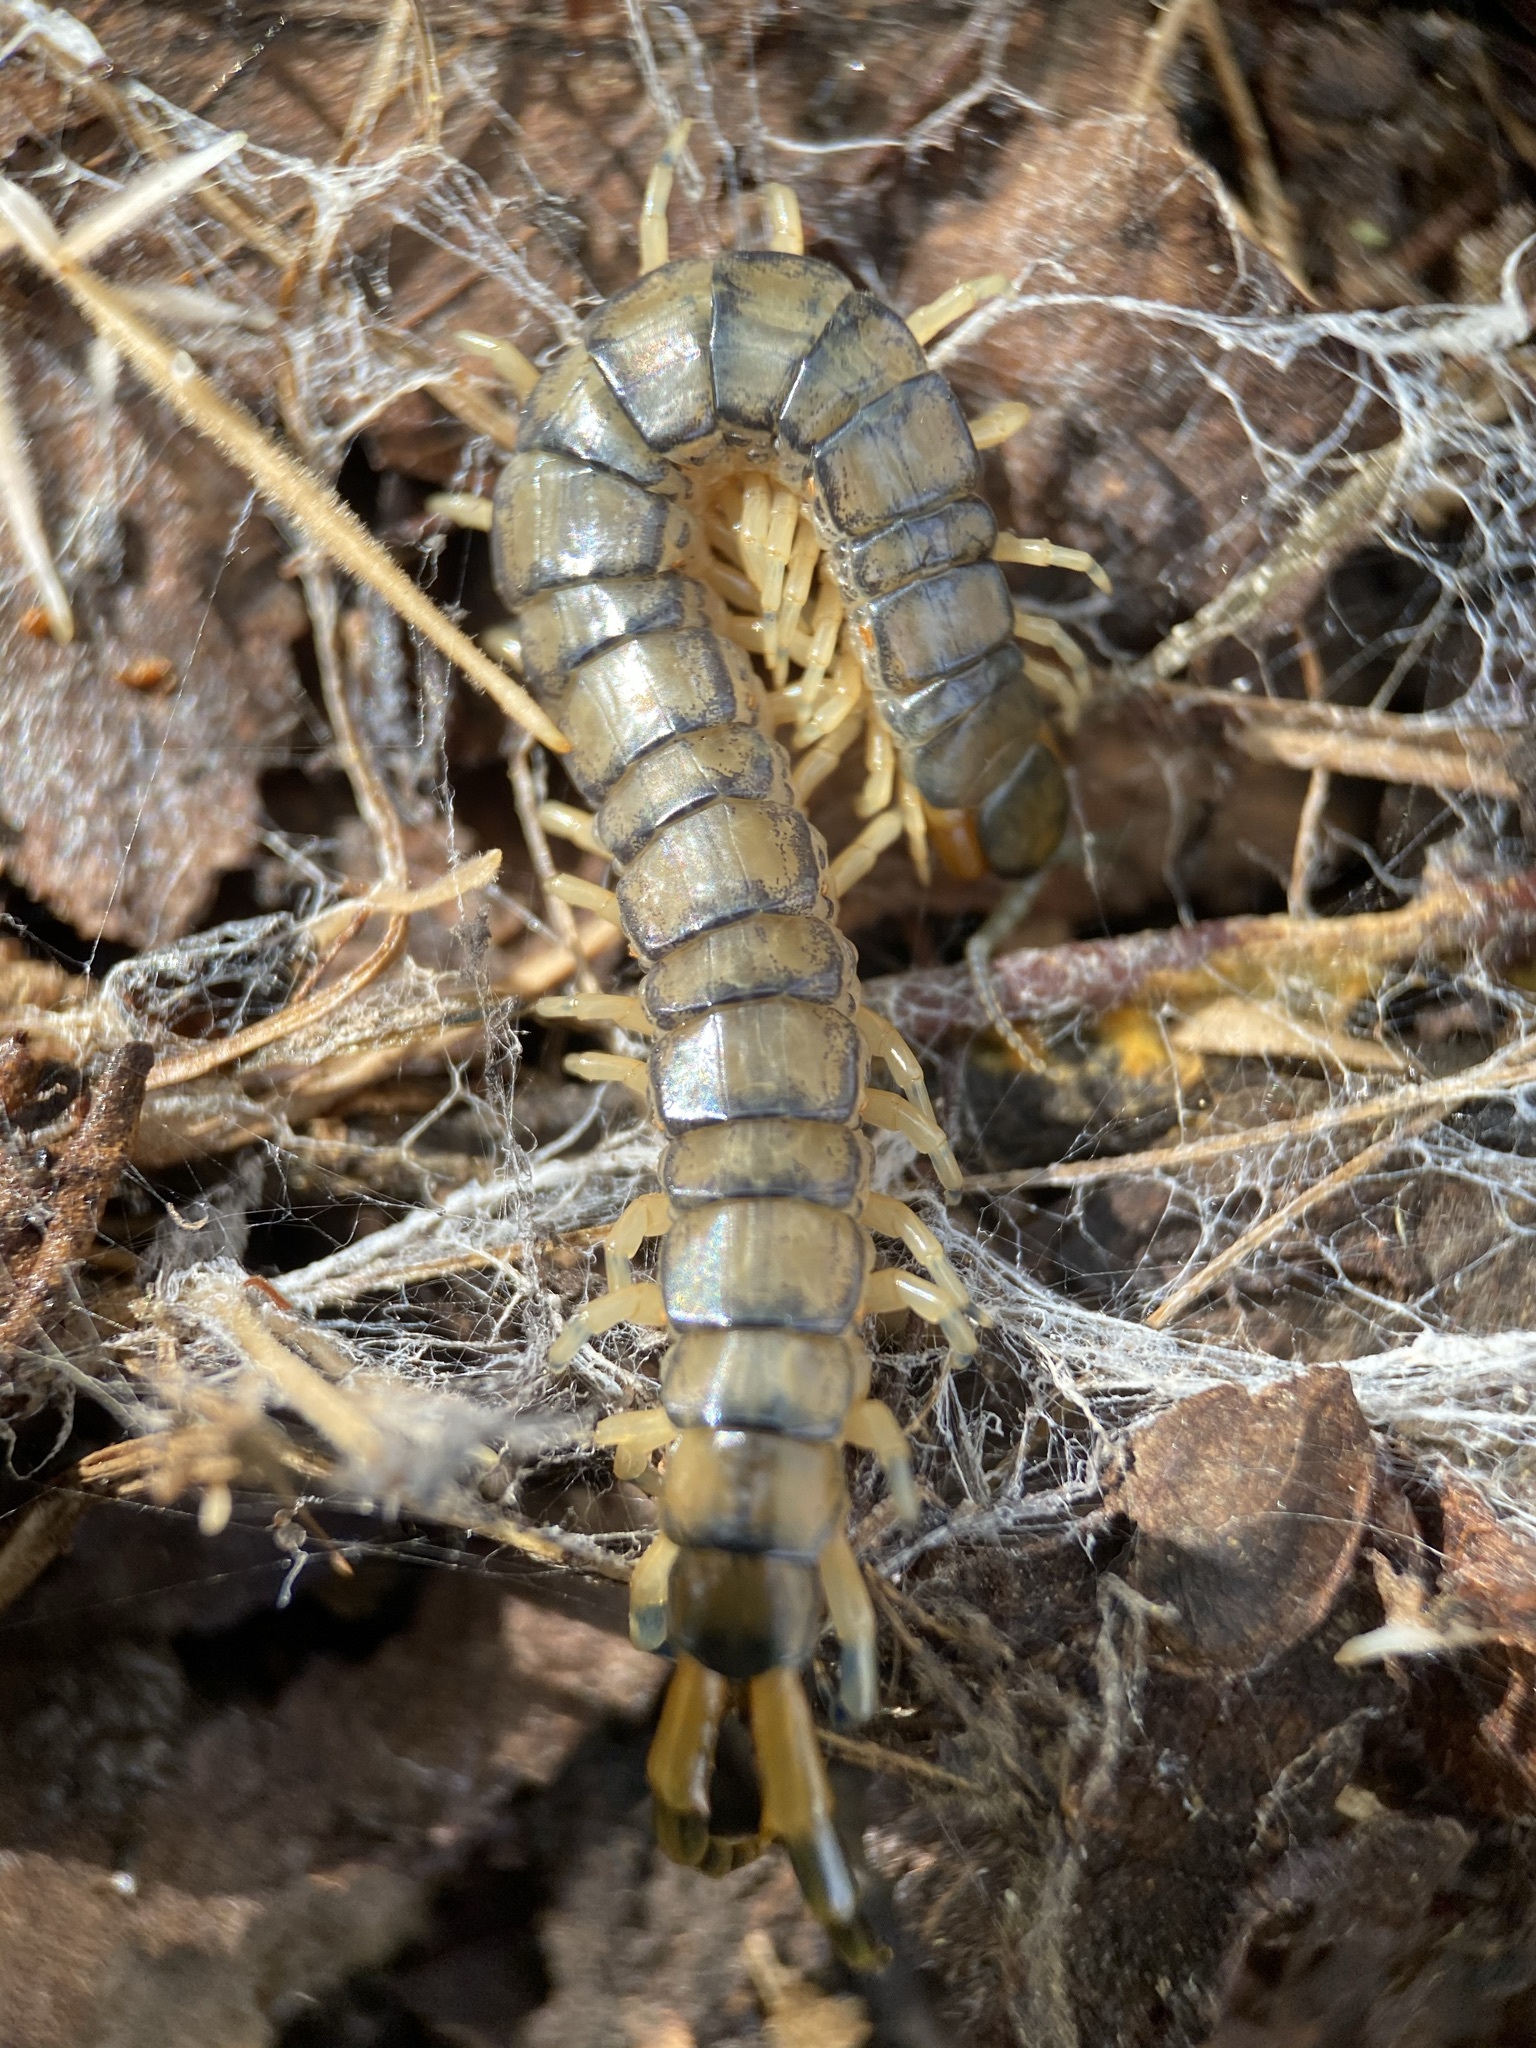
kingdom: Animalia
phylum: Arthropoda
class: Chilopoda
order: Scolopendromorpha
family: Scolopendridae
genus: Hemiscolopendra
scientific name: Hemiscolopendra marginata
